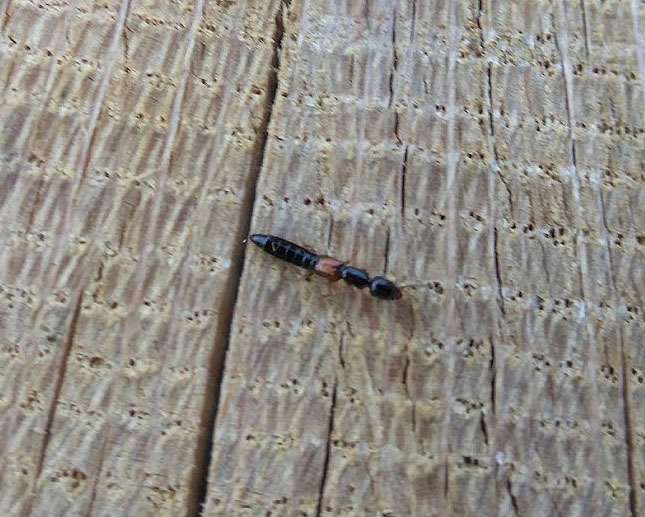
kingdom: Animalia
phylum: Arthropoda
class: Insecta
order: Coleoptera
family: Staphylinidae
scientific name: Staphylinidae
